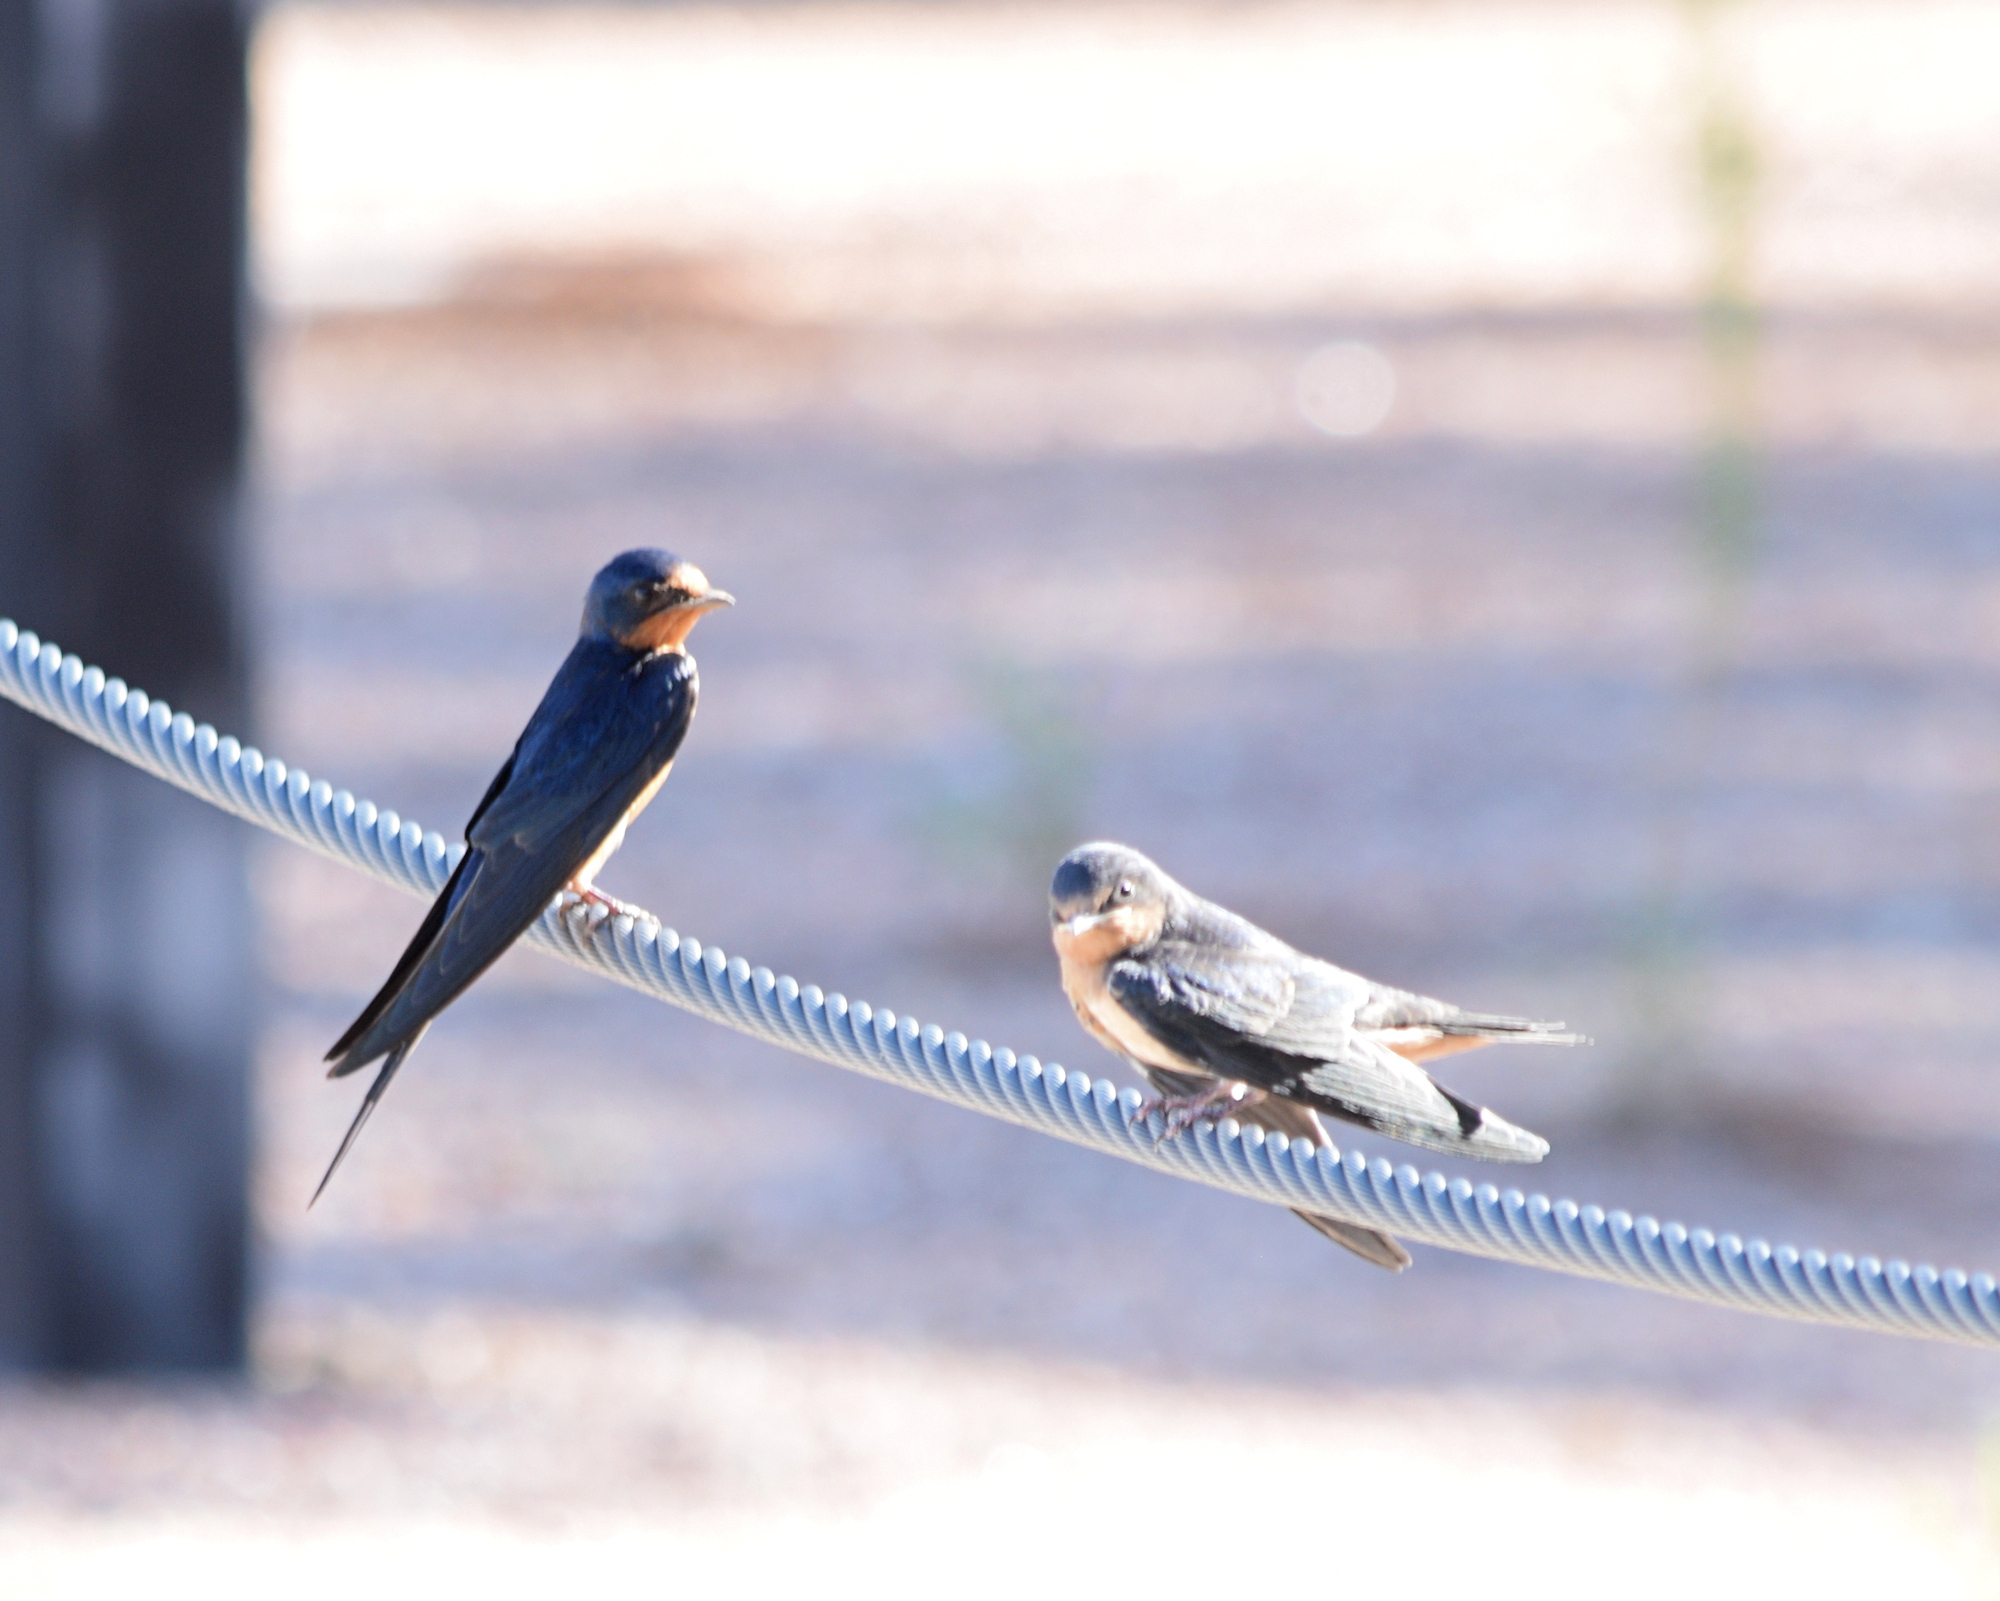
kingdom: Animalia
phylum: Chordata
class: Aves
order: Passeriformes
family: Hirundinidae
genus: Hirundo
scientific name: Hirundo rustica
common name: Barn swallow
